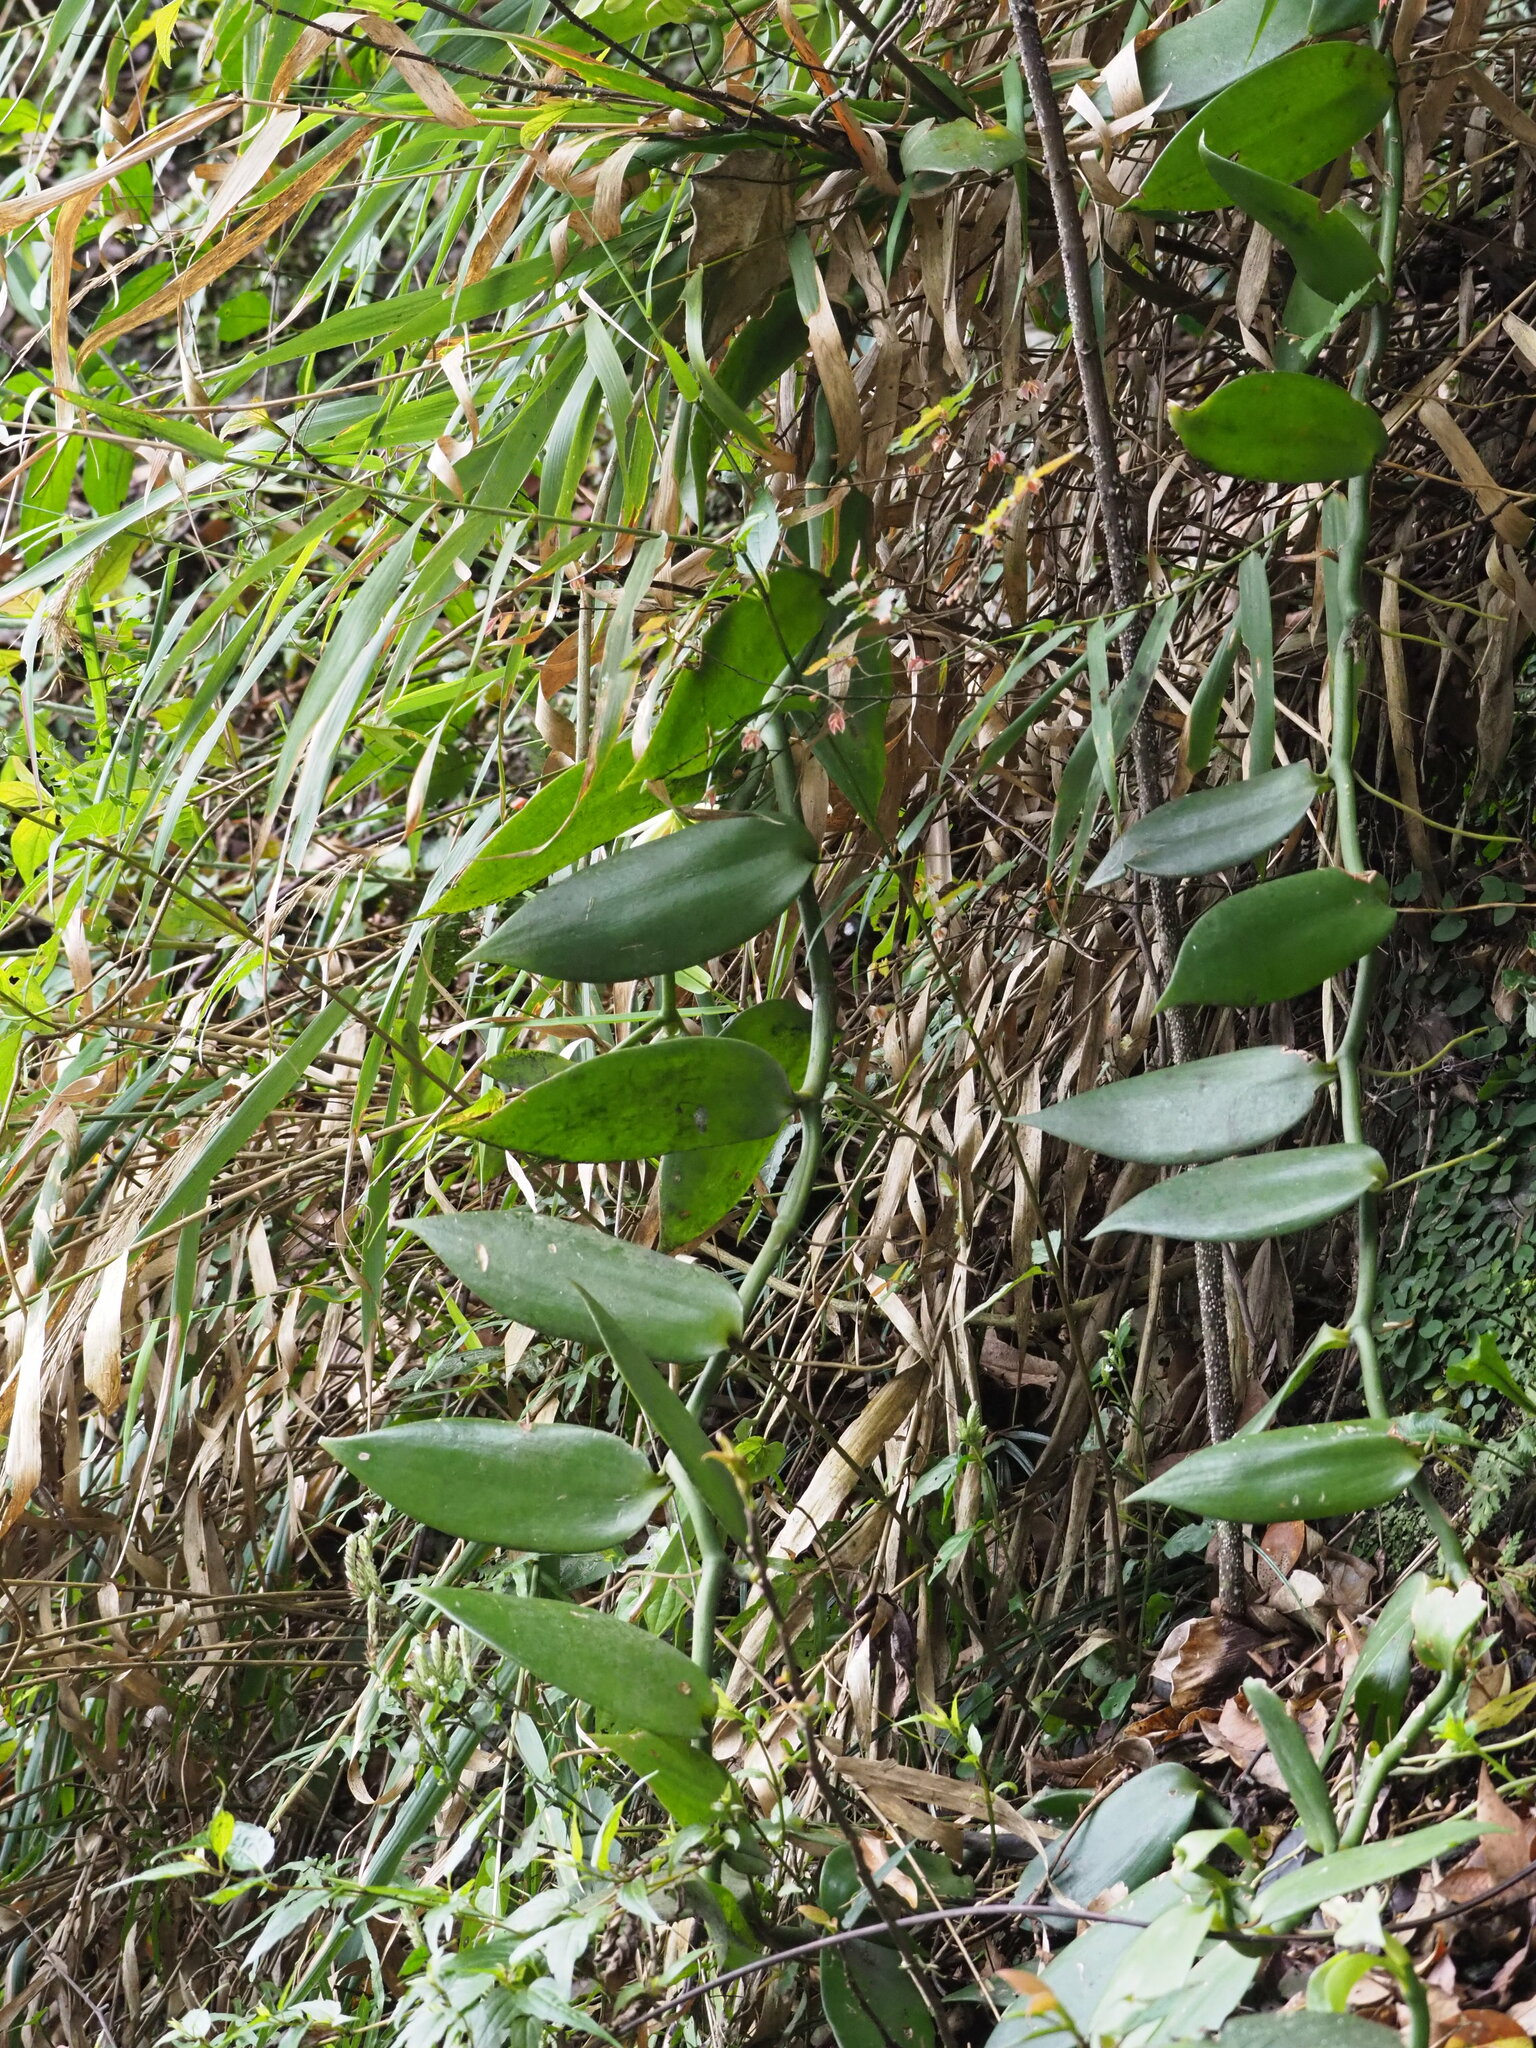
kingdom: Plantae
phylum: Tracheophyta
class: Liliopsida
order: Asparagales
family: Orchidaceae
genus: Vanilla
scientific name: Vanilla somae
